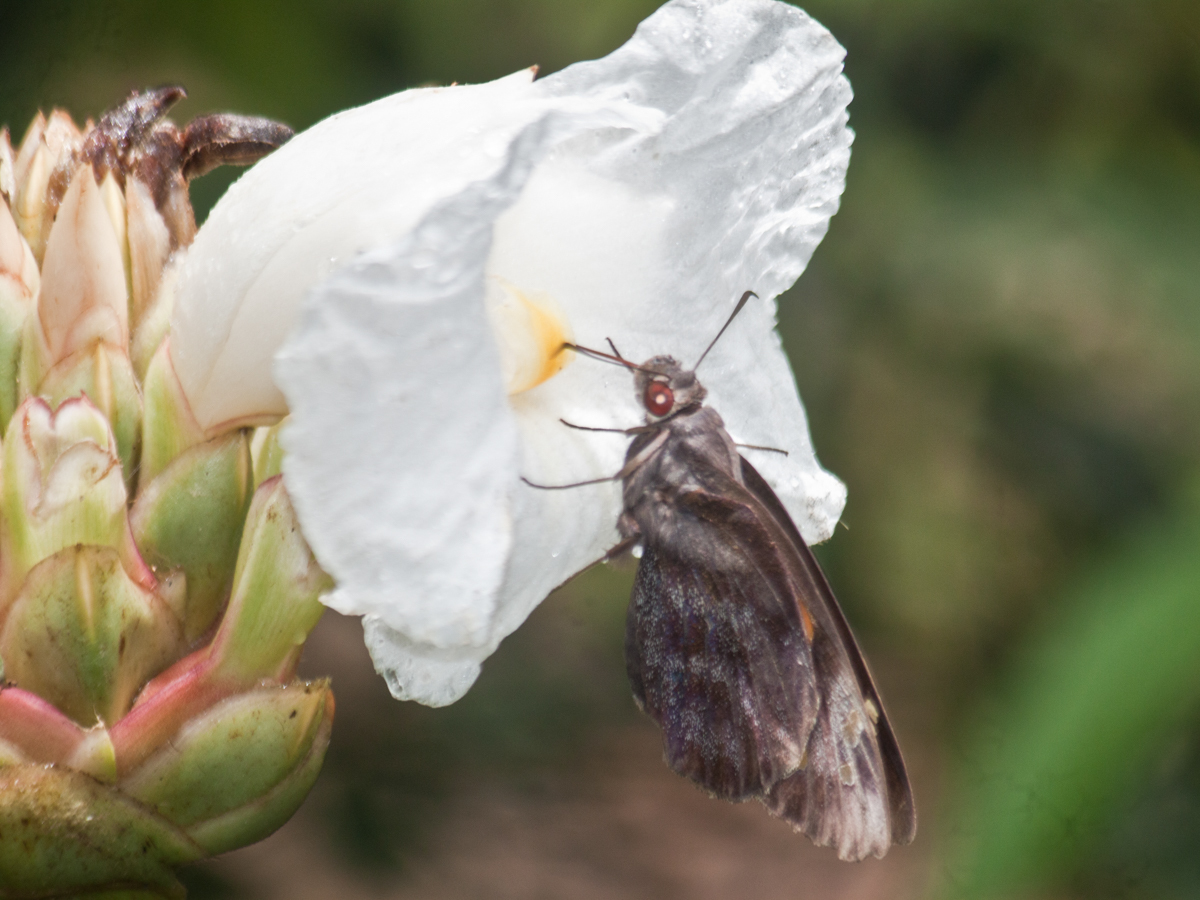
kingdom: Animalia
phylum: Arthropoda
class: Insecta
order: Lepidoptera
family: Hesperiidae
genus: Gangara
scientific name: Gangara thyrsis
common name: Giant redeye
